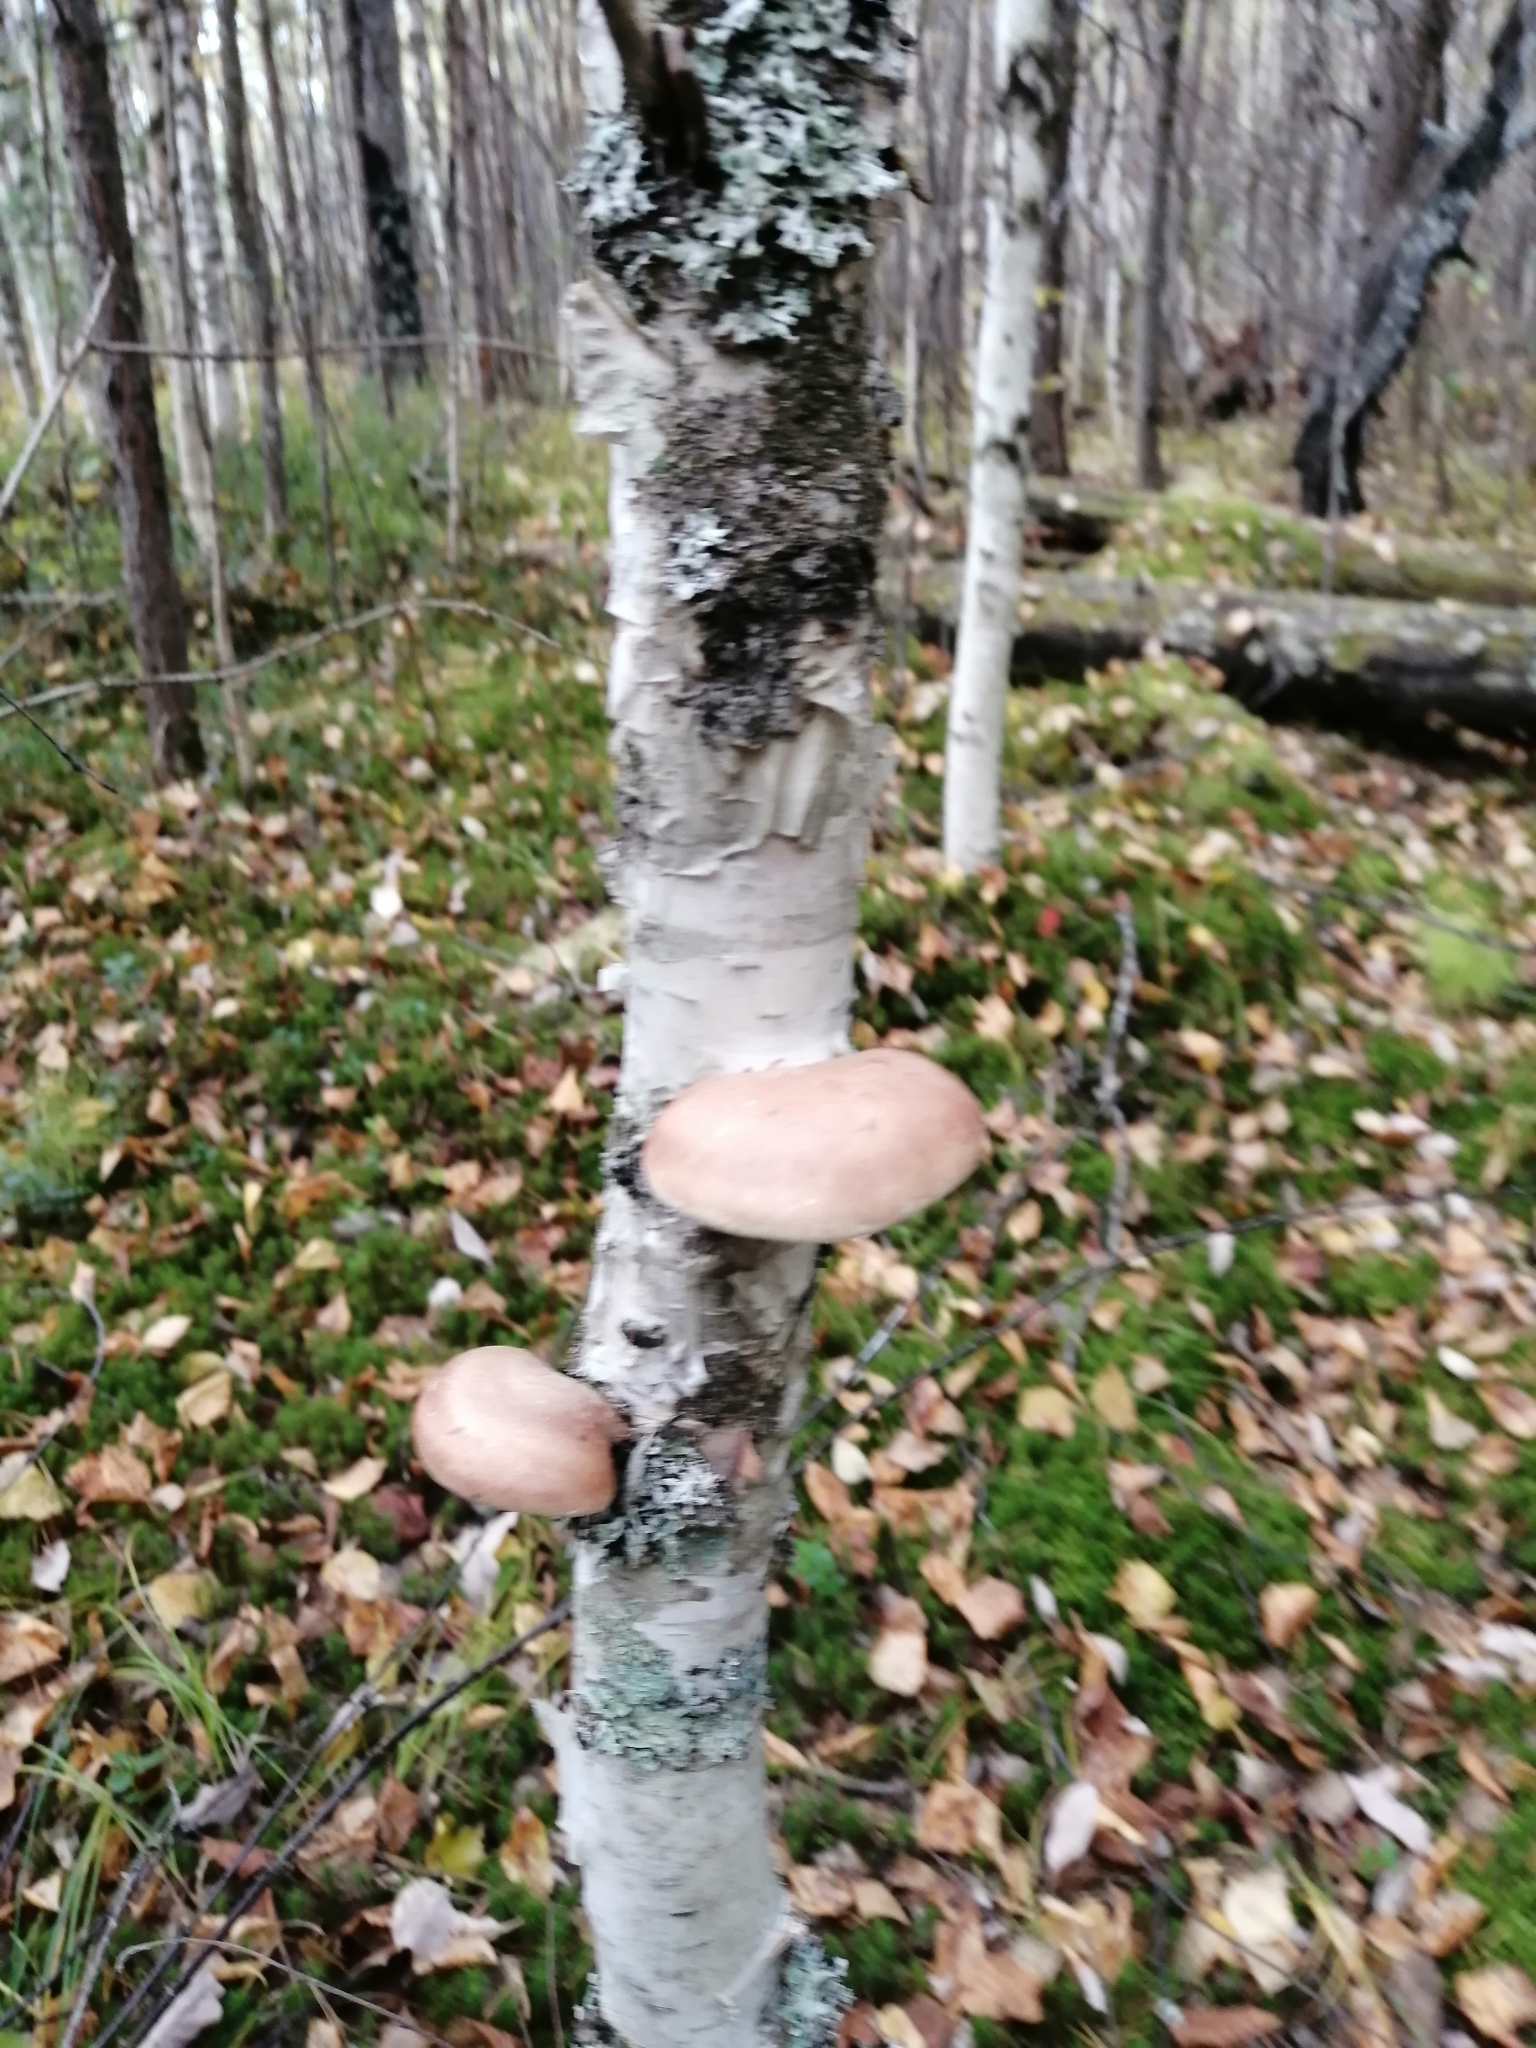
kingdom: Fungi
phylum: Basidiomycota
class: Agaricomycetes
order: Polyporales
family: Fomitopsidaceae
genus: Fomitopsis
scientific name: Fomitopsis betulina
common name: Birch polypore
